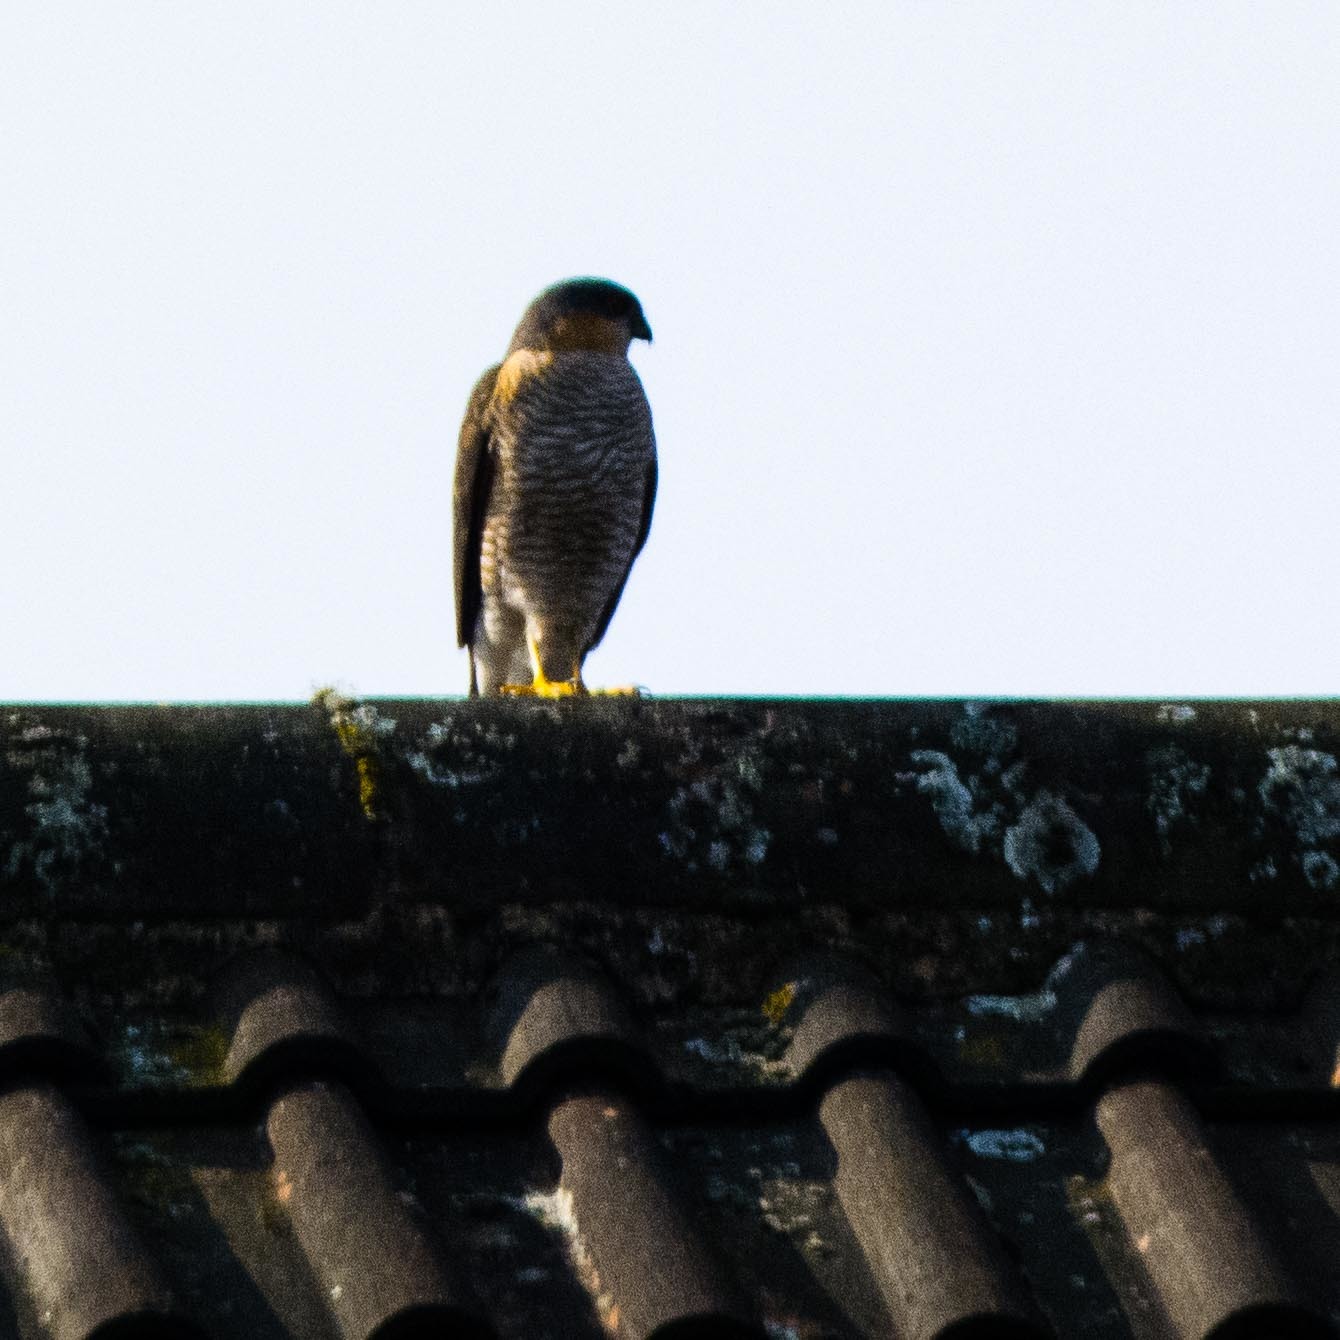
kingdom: Animalia
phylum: Chordata
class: Aves
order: Accipitriformes
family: Accipitridae
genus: Accipiter
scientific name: Accipiter nisus
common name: Eurasian sparrowhawk
